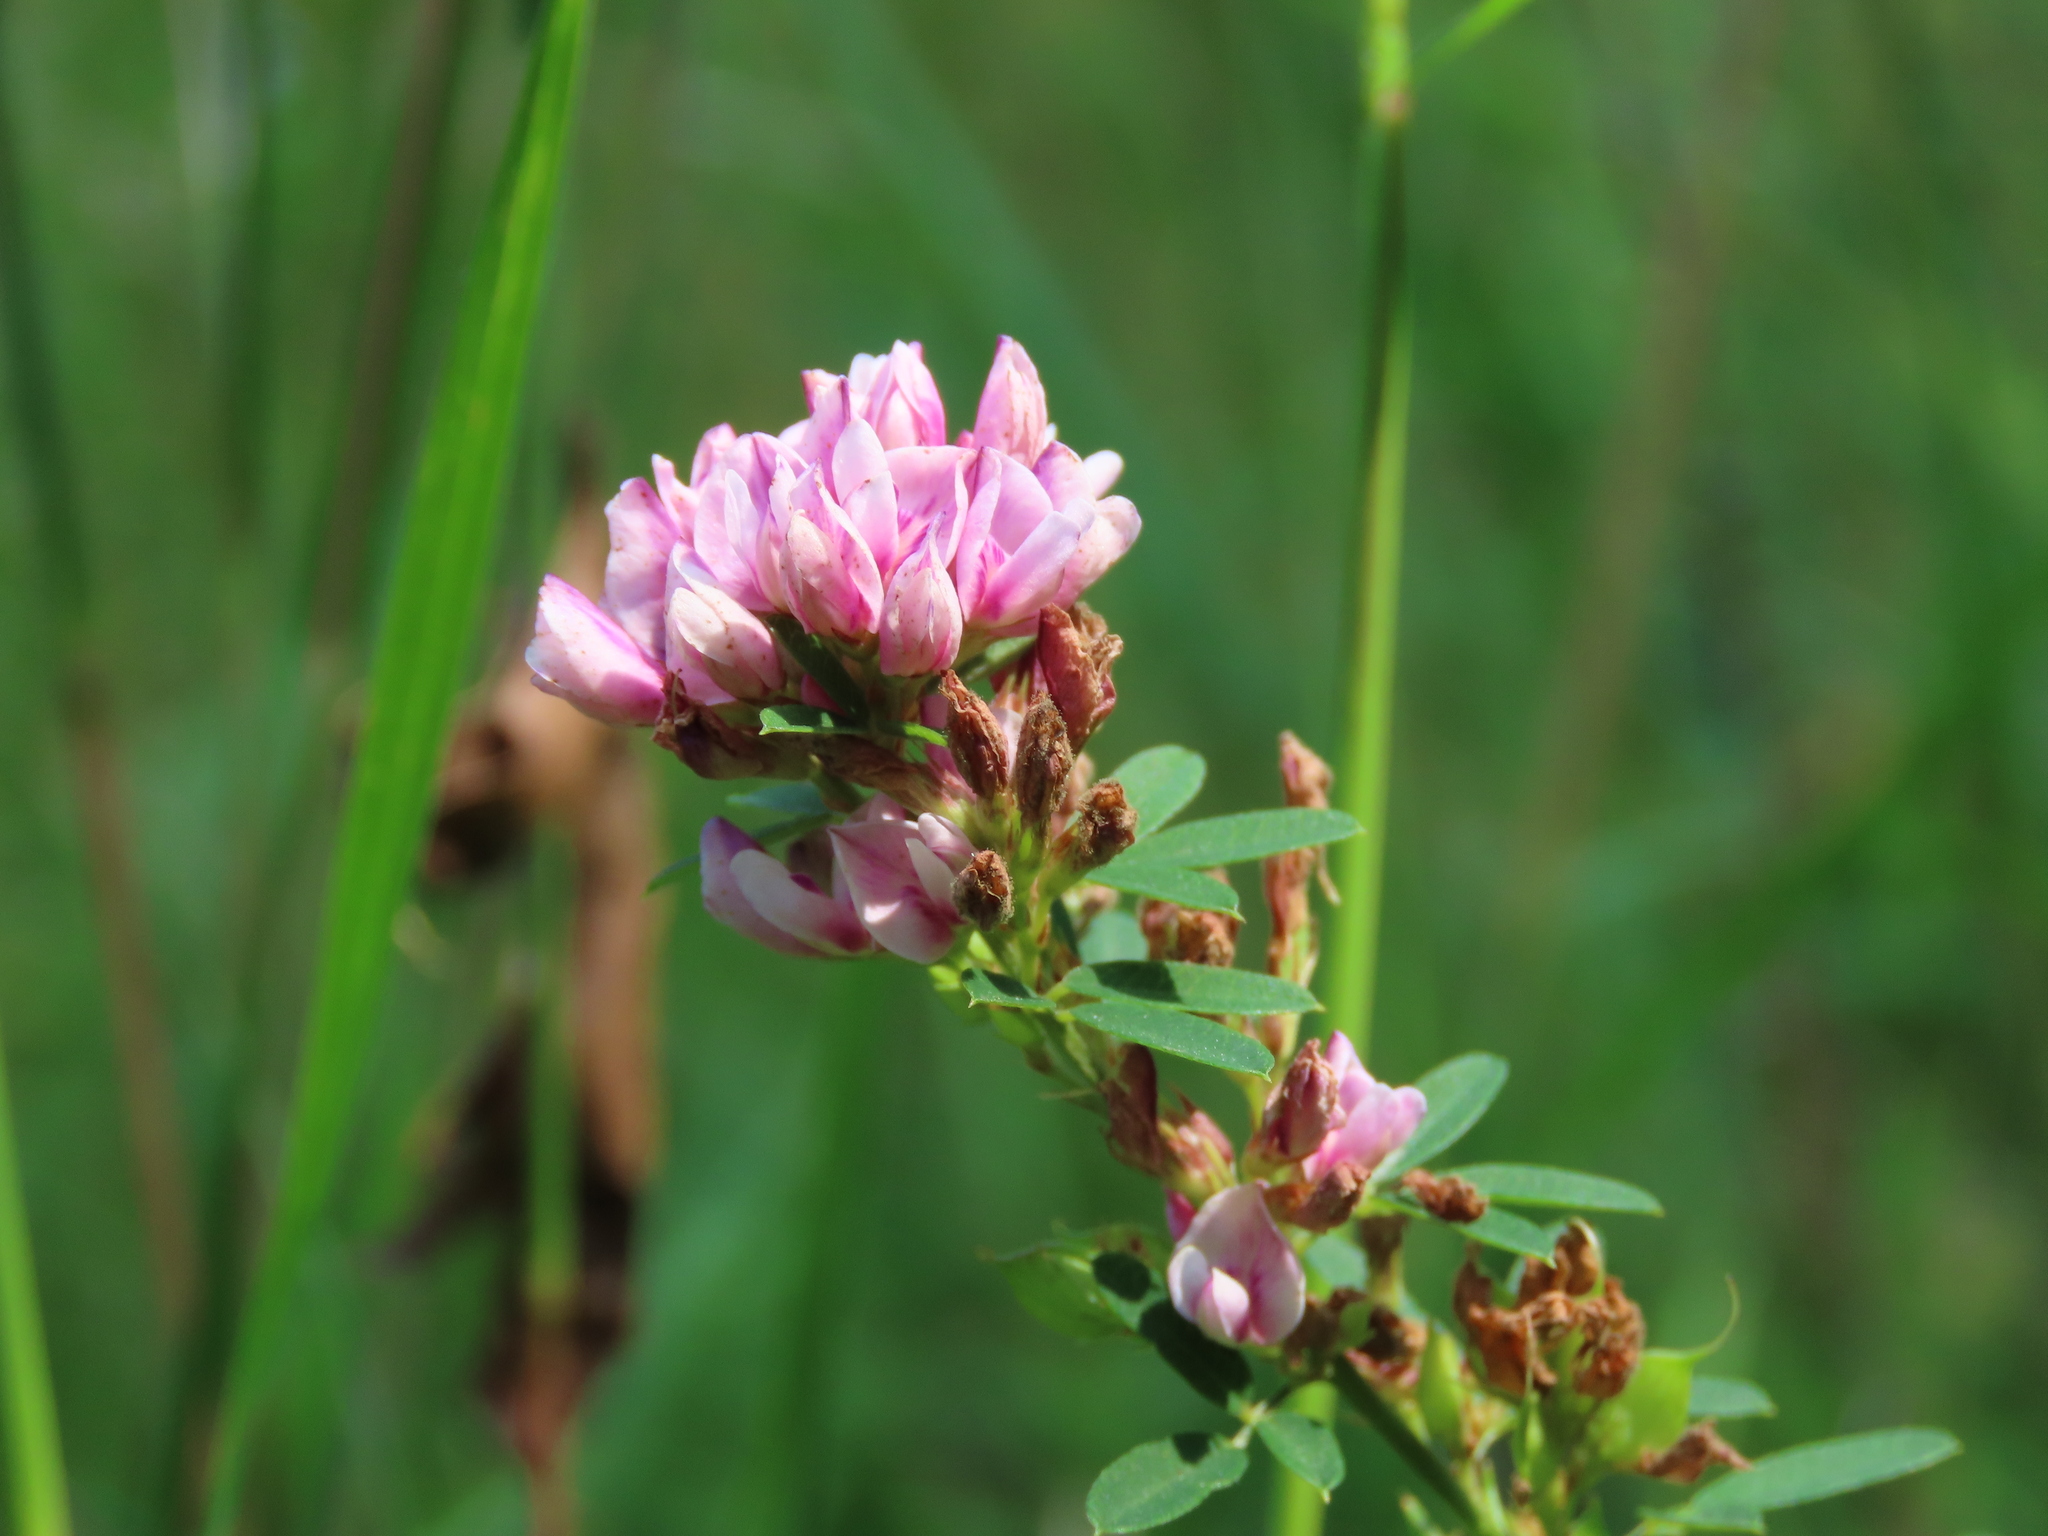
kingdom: Plantae
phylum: Tracheophyta
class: Magnoliopsida
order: Fabales
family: Fabaceae
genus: Lespedeza
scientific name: Lespedeza virginica
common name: Slender bush-clover
